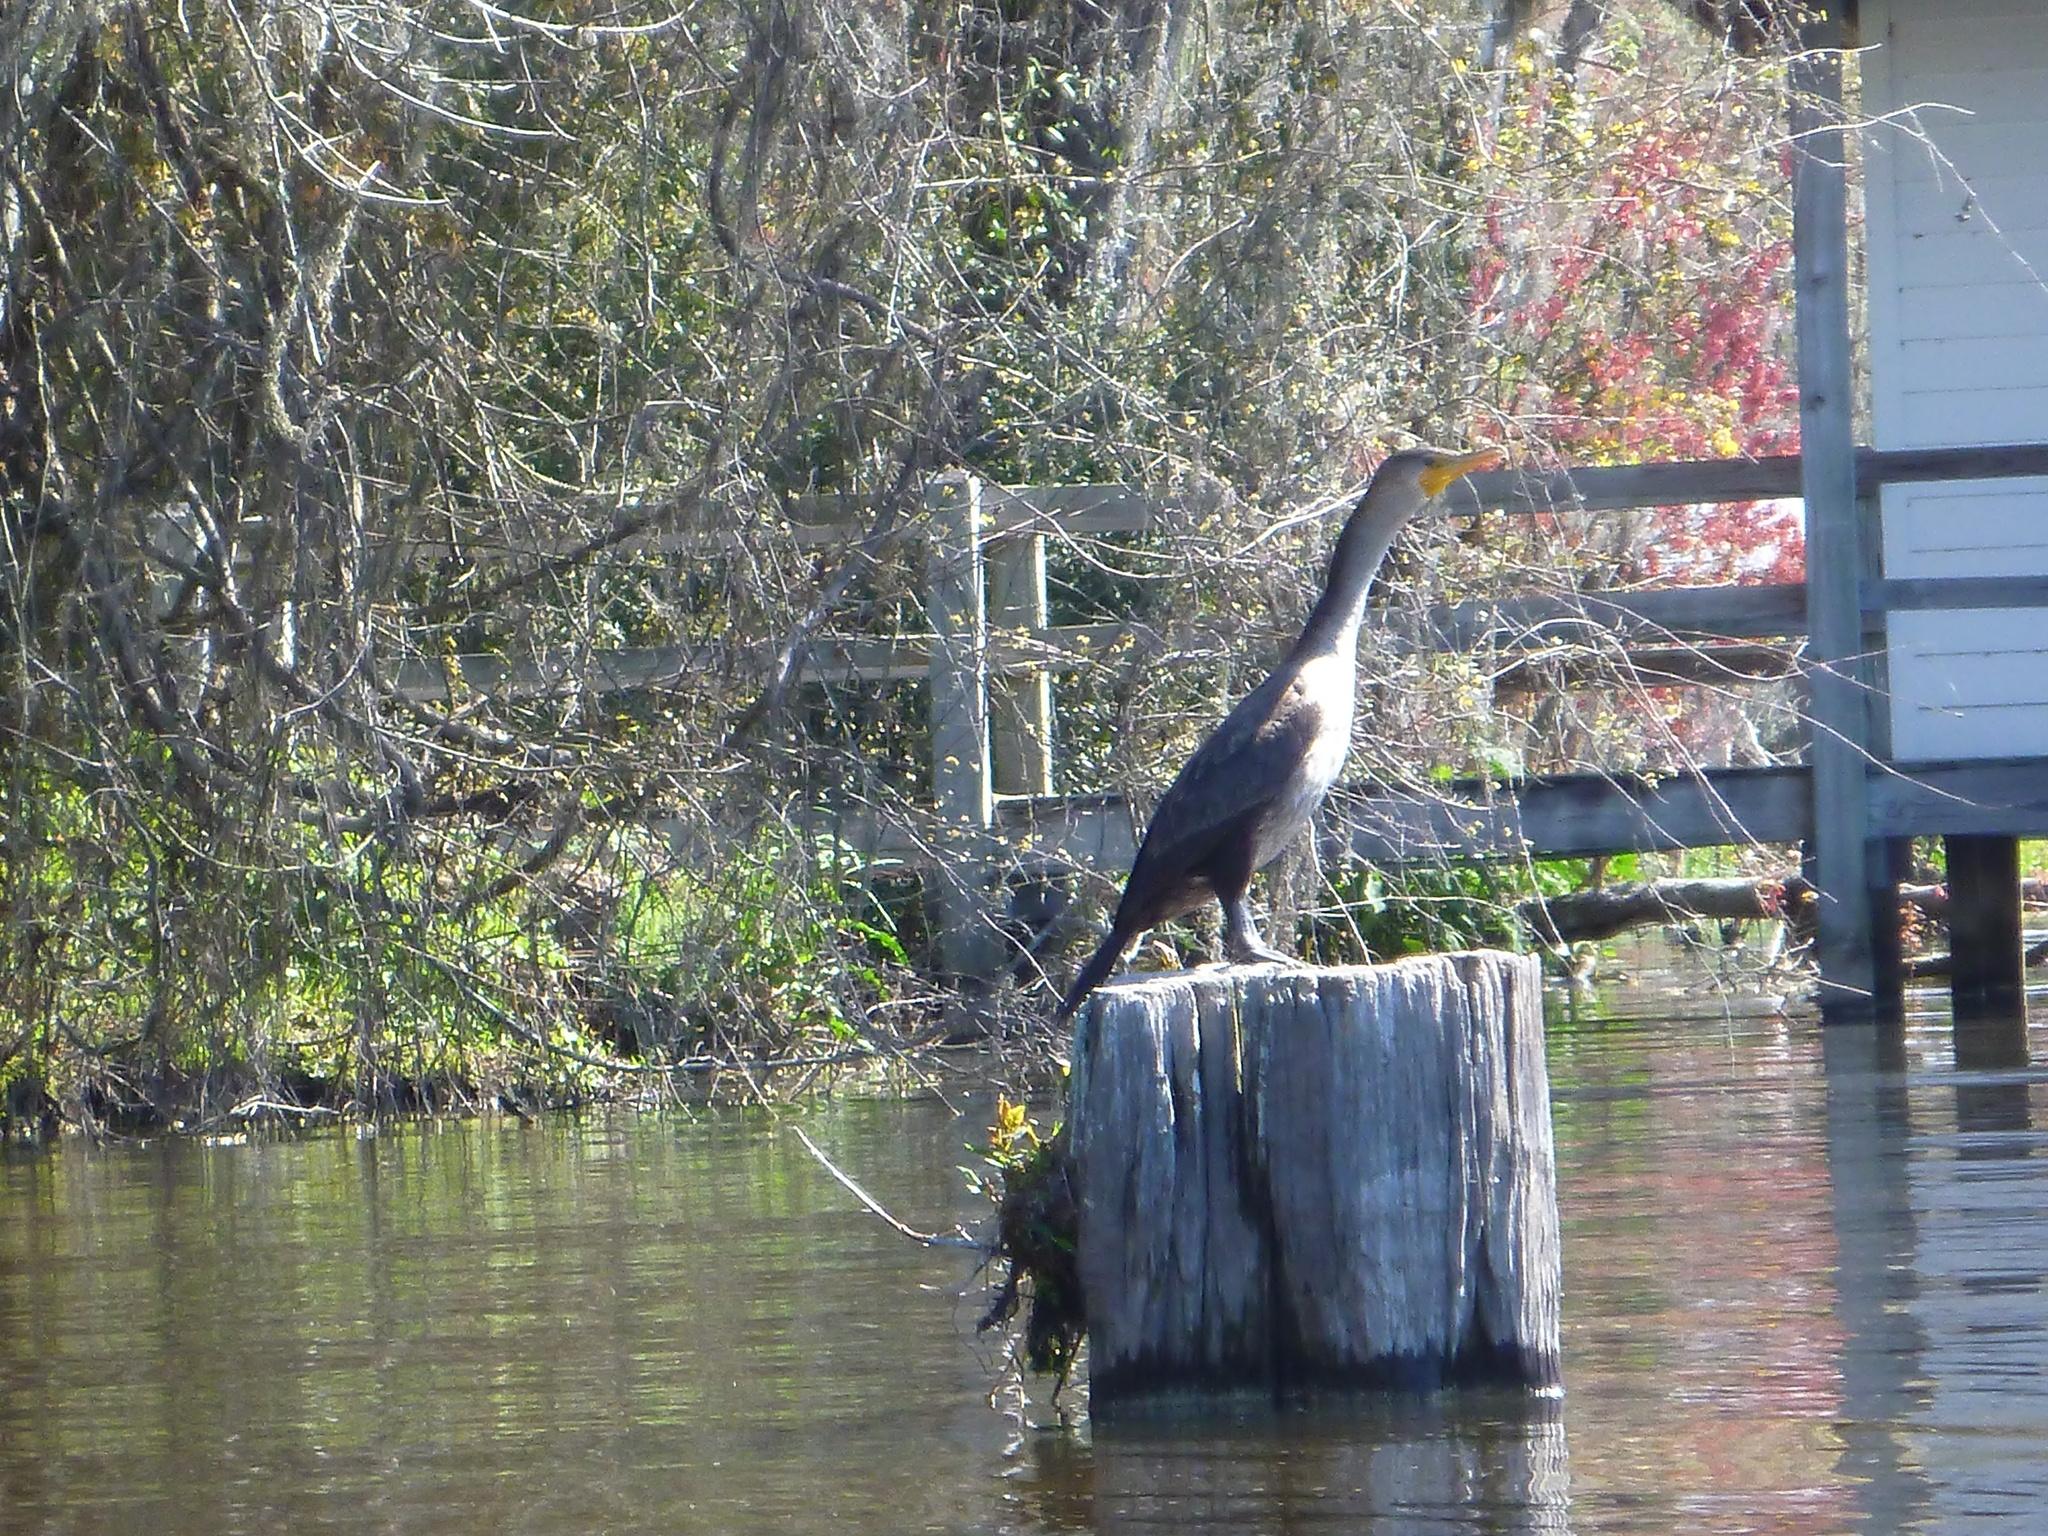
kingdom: Animalia
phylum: Chordata
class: Aves
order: Suliformes
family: Phalacrocoracidae
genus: Phalacrocorax
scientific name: Phalacrocorax auritus
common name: Double-crested cormorant
